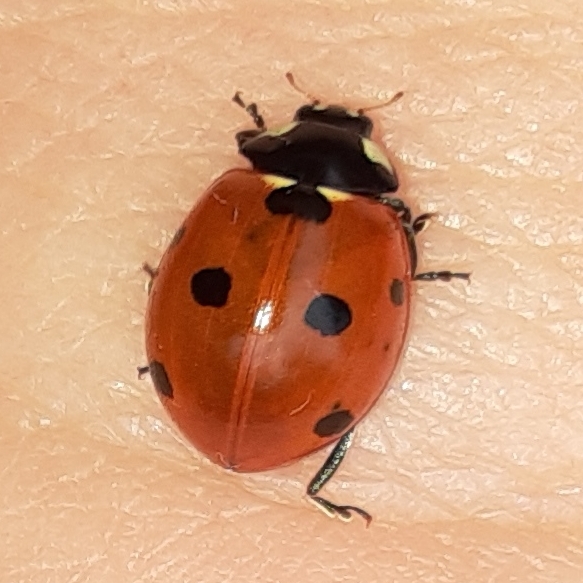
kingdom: Animalia
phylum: Arthropoda
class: Insecta
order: Coleoptera
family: Coccinellidae
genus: Coccinella
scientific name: Coccinella septempunctata
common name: Sevenspotted lady beetle
